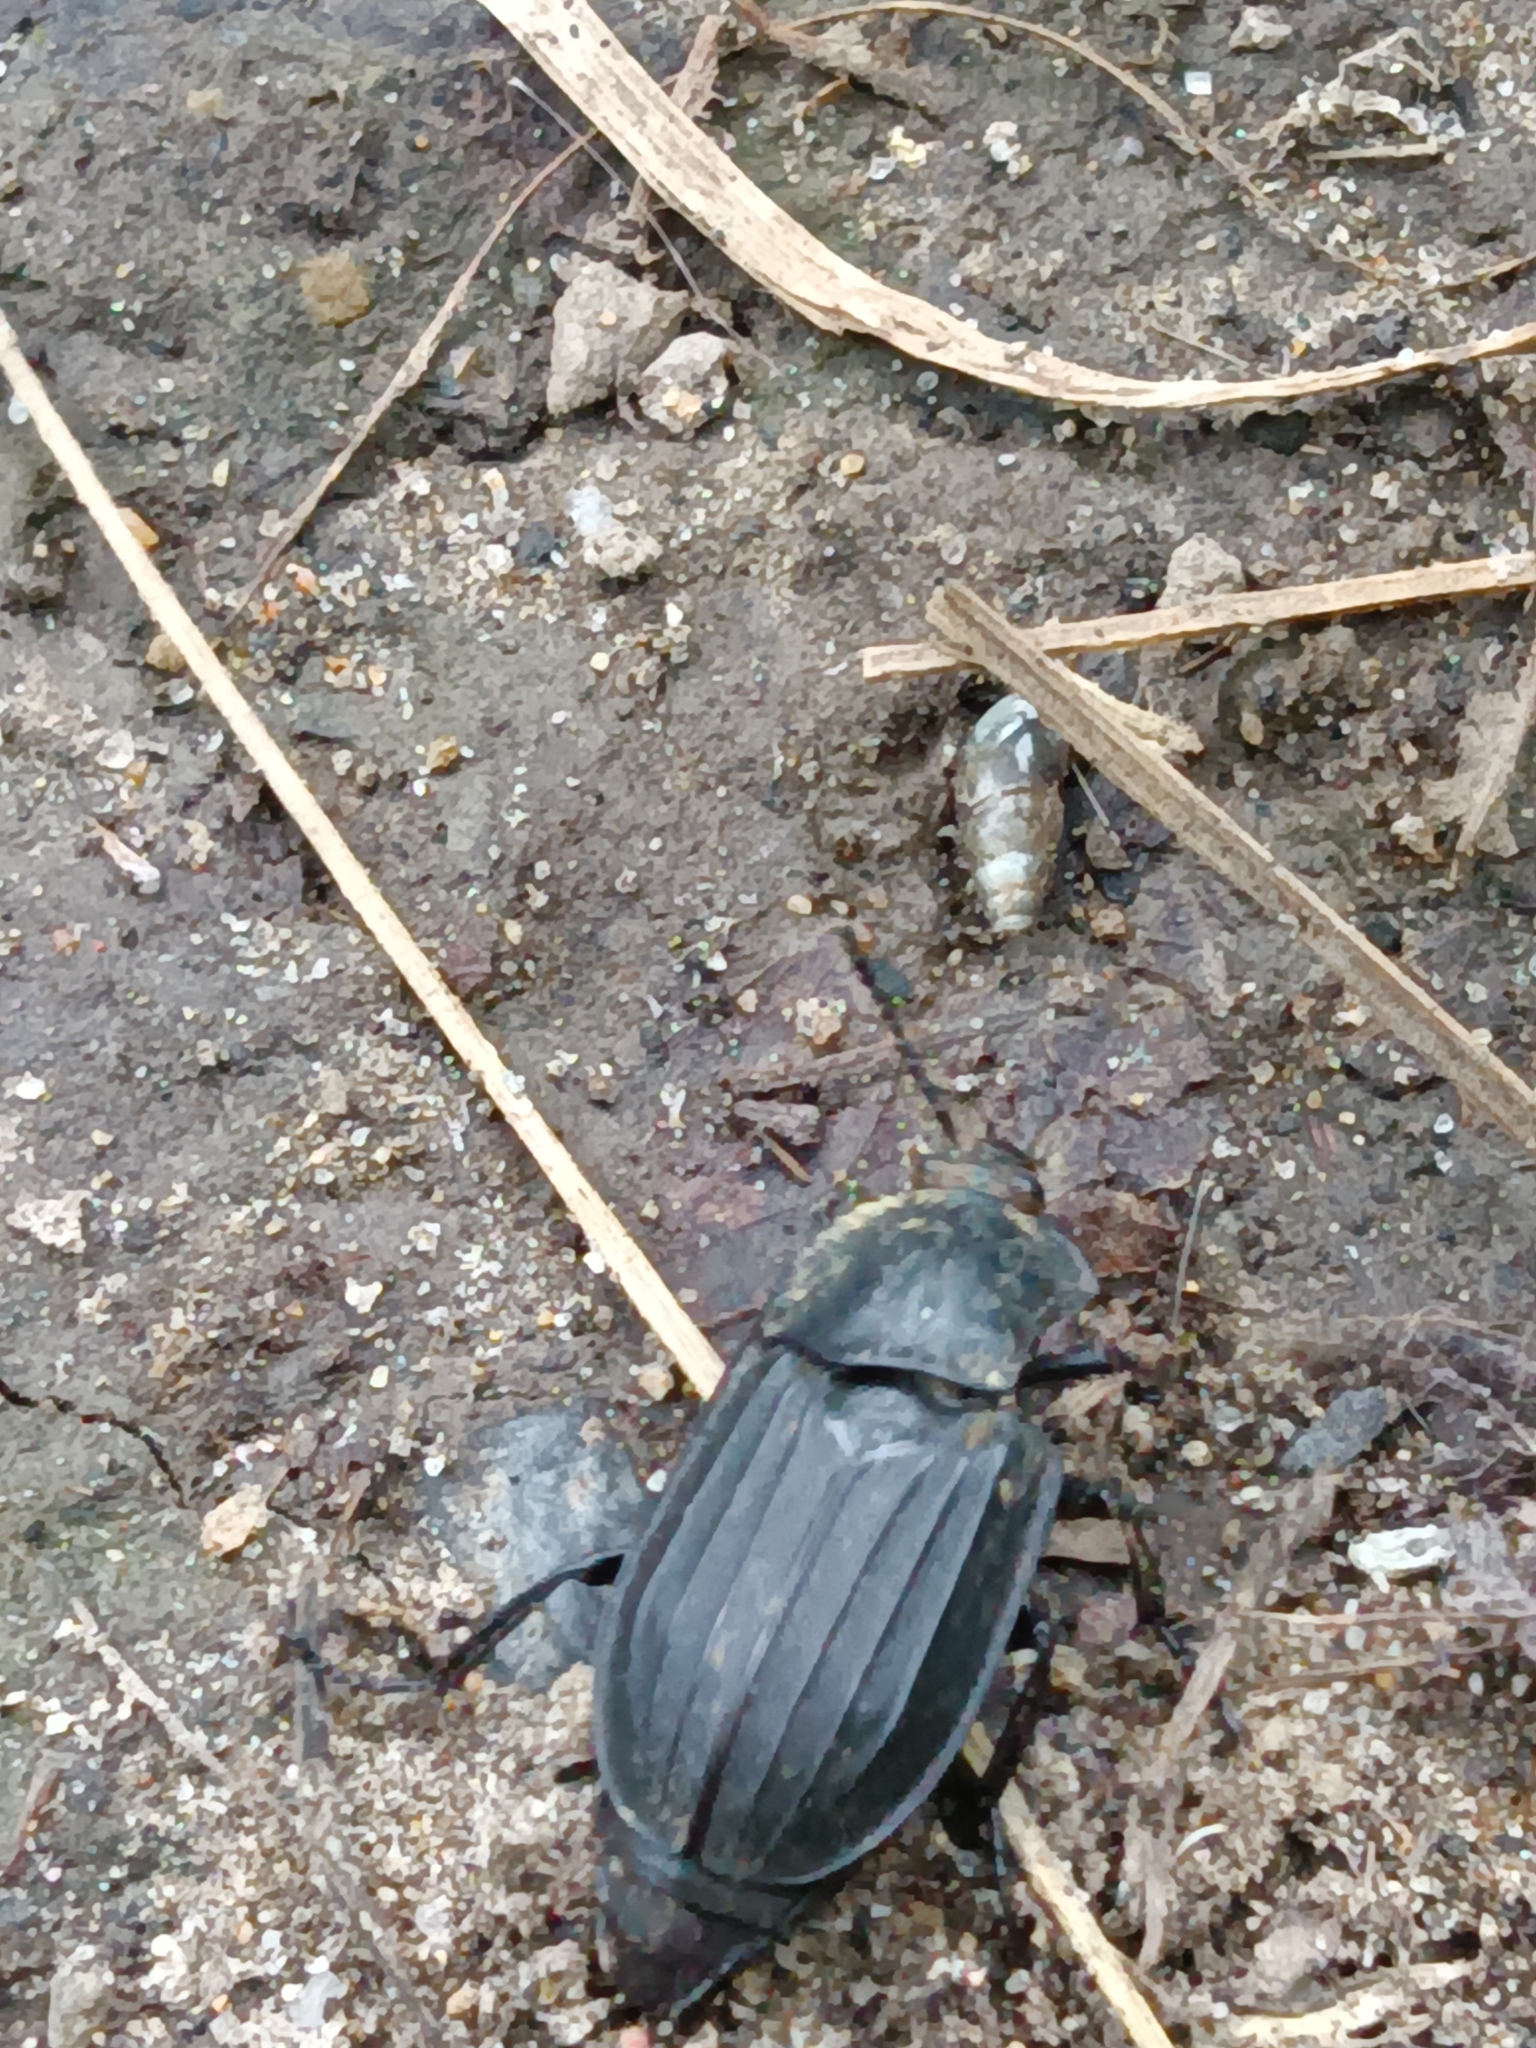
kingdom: Animalia
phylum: Arthropoda
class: Insecta
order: Coleoptera
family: Staphylinidae
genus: Silpha
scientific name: Silpha tristis
